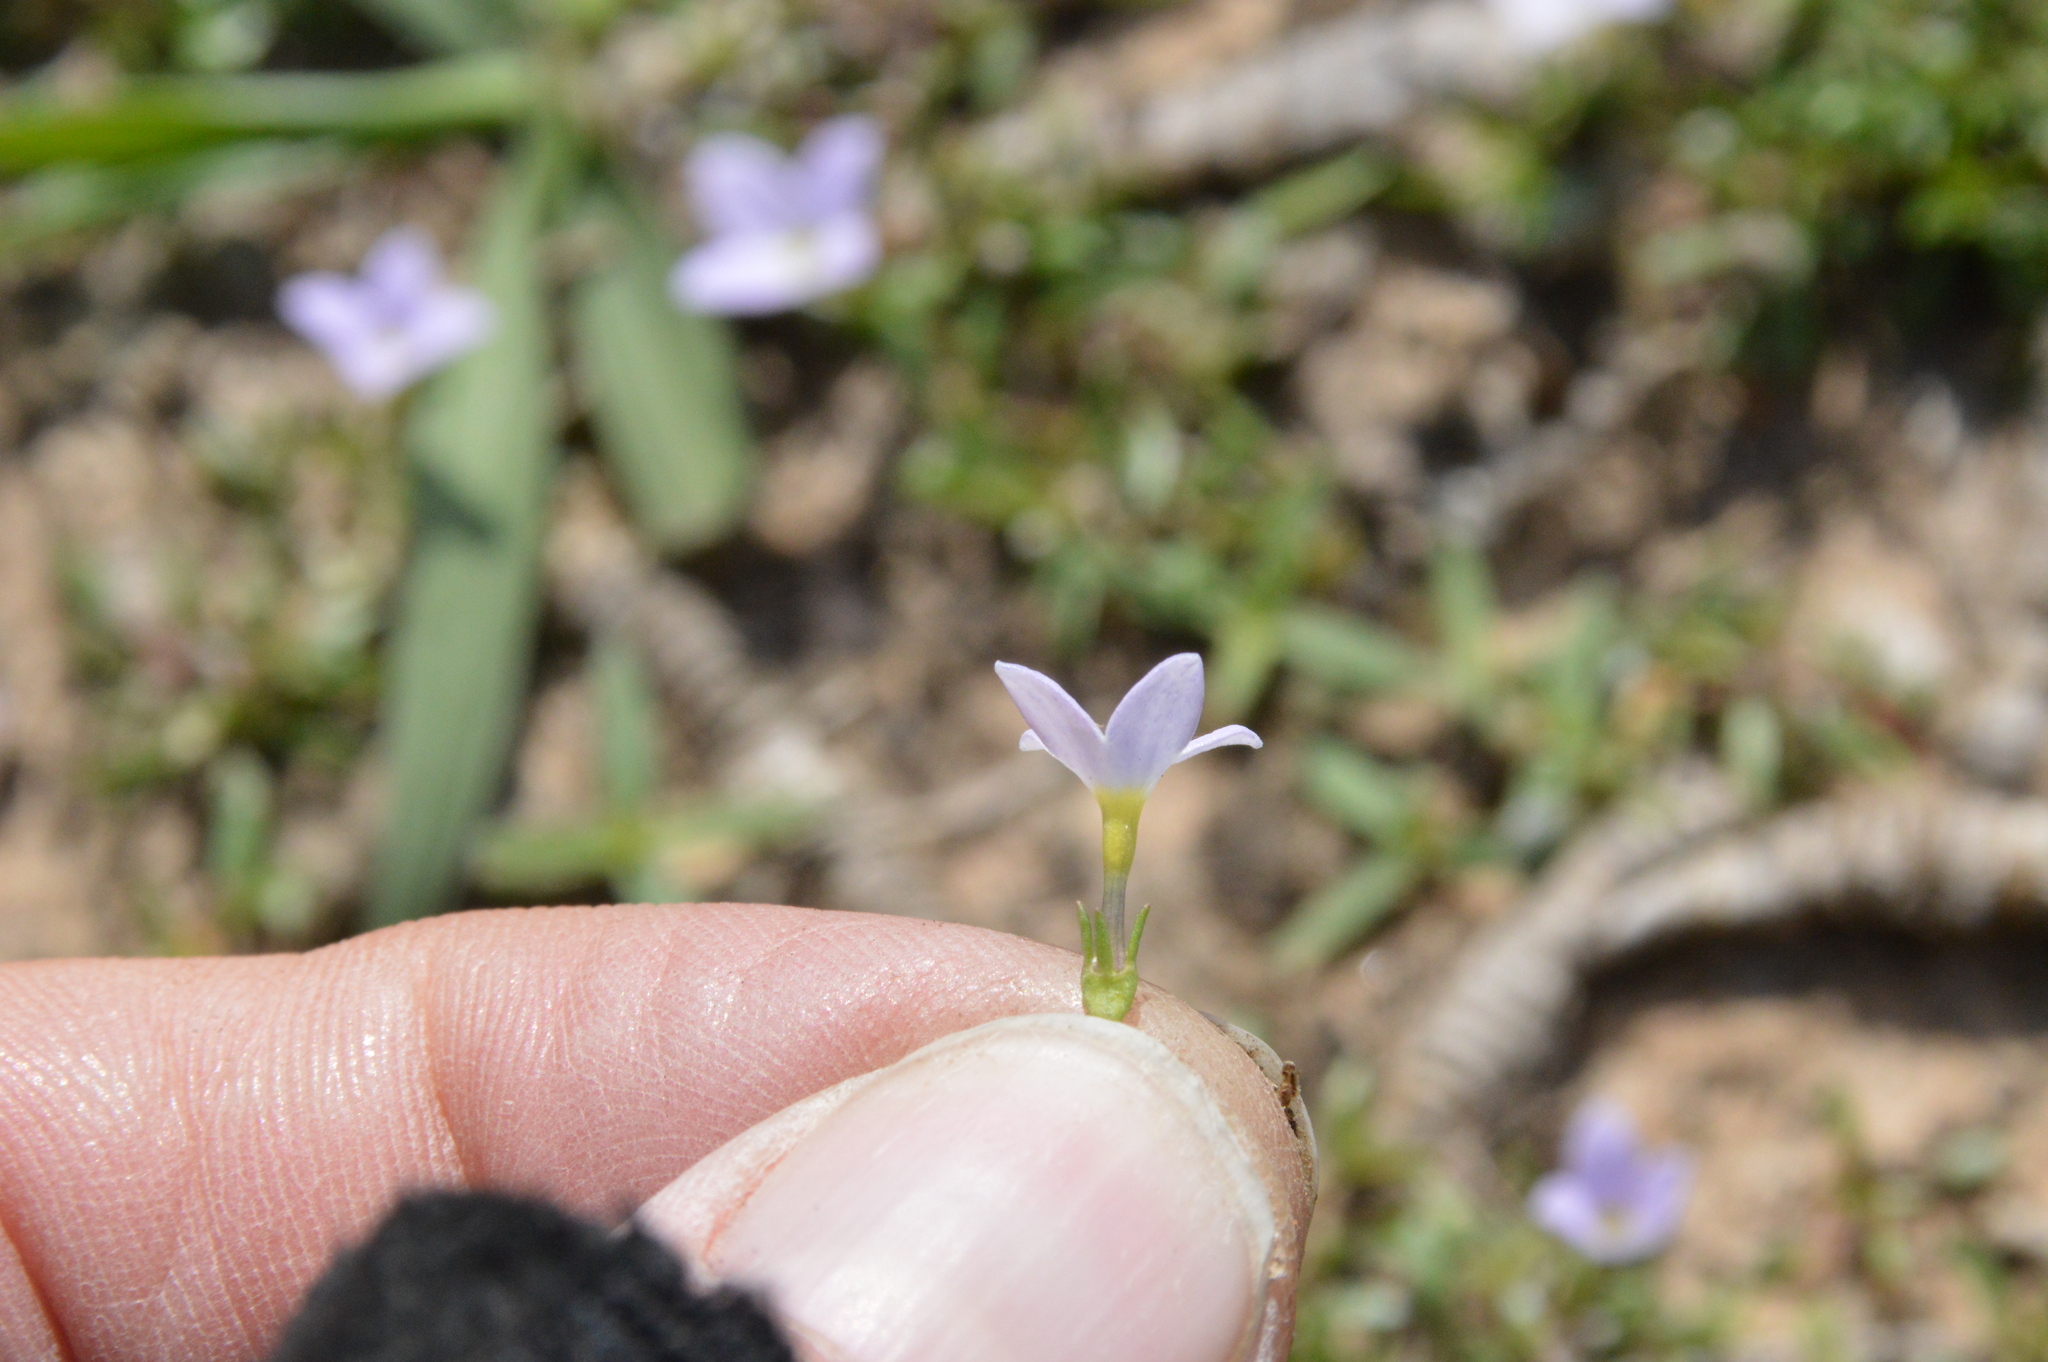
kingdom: Plantae
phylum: Tracheophyta
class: Magnoliopsida
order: Gentianales
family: Rubiaceae
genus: Houstonia
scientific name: Houstonia rosea
